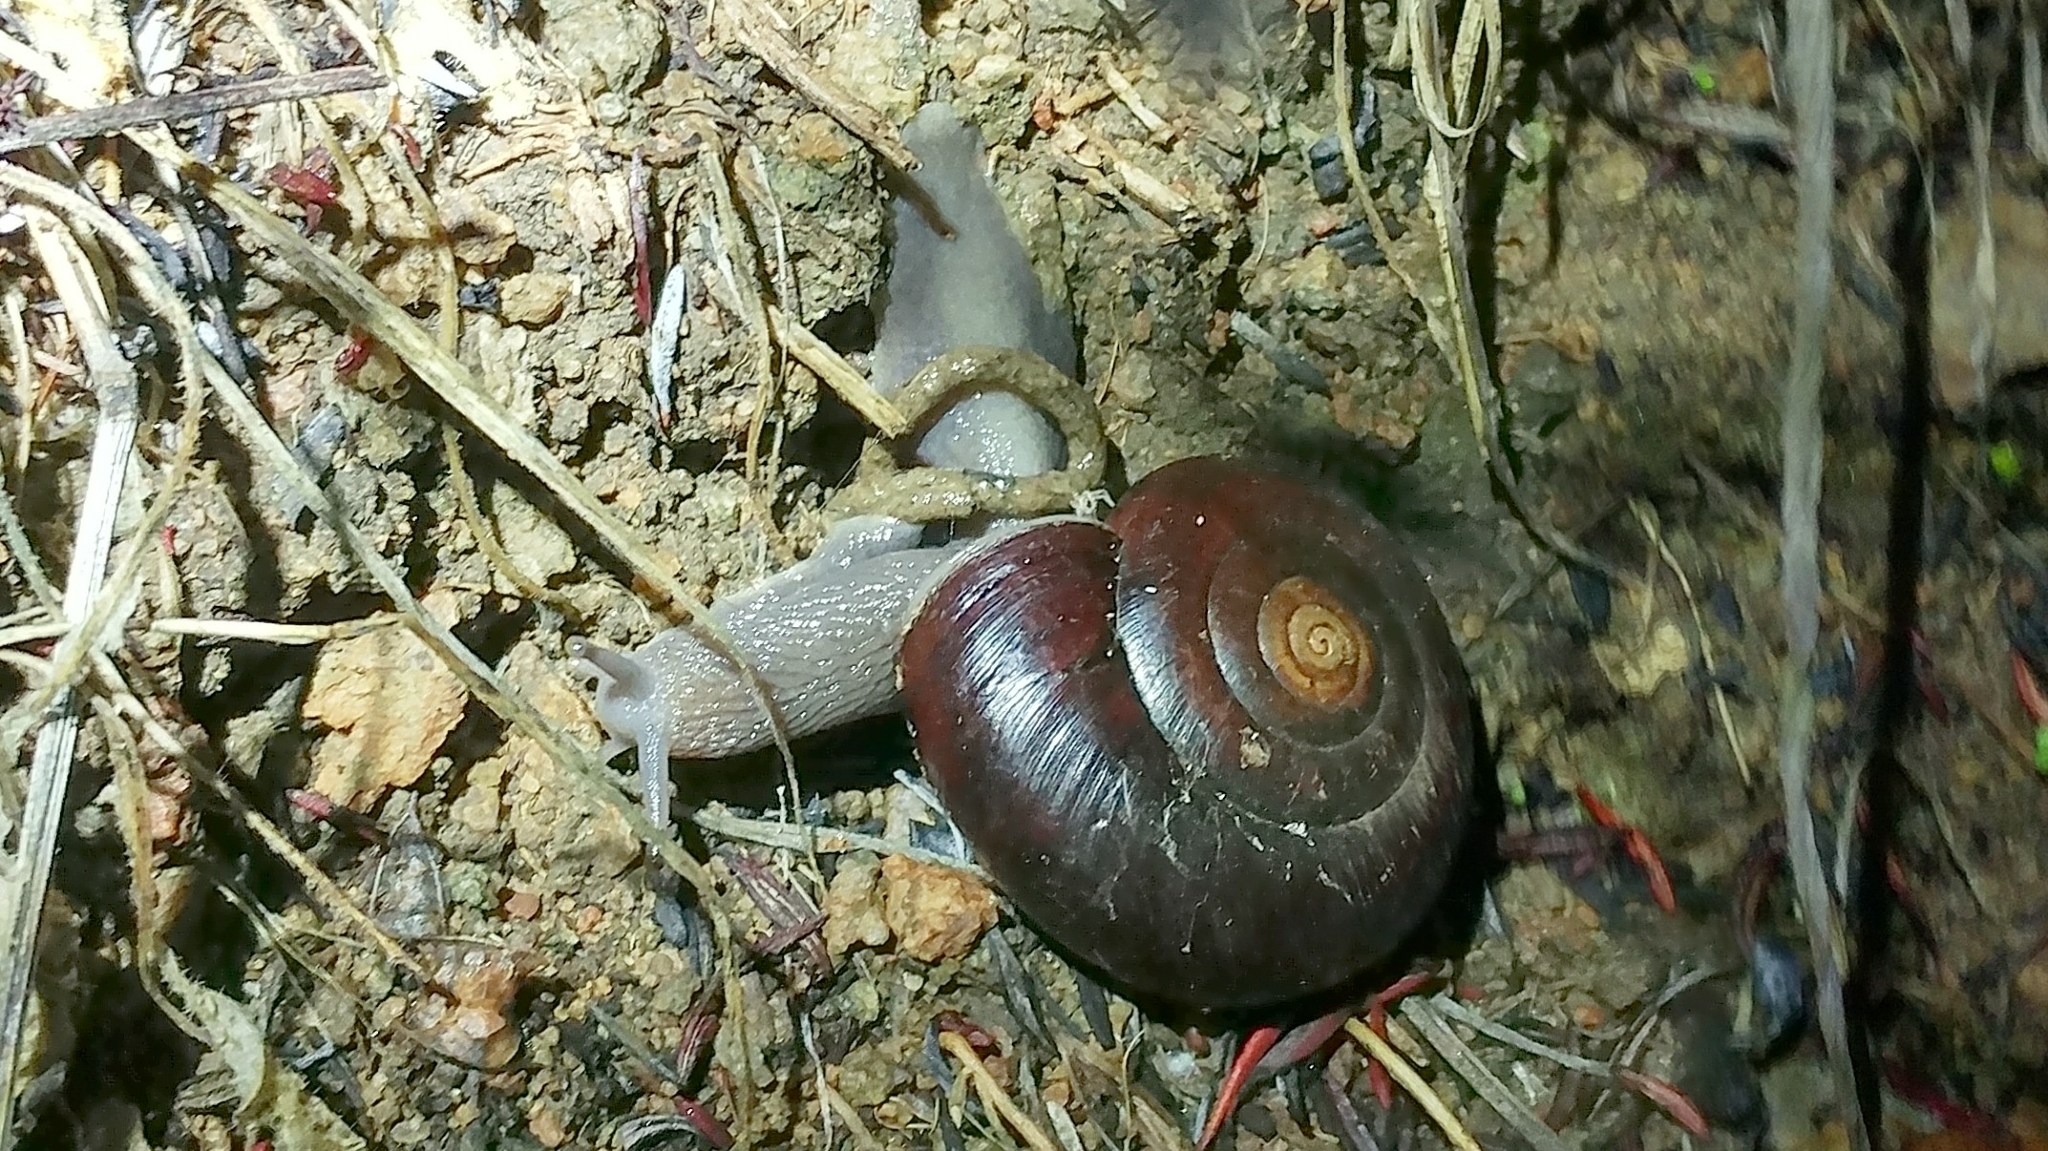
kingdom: Animalia
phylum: Mollusca
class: Gastropoda
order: Stylommatophora
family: Megomphicidae
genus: Glyptostoma
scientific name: Glyptostoma newberryanum
